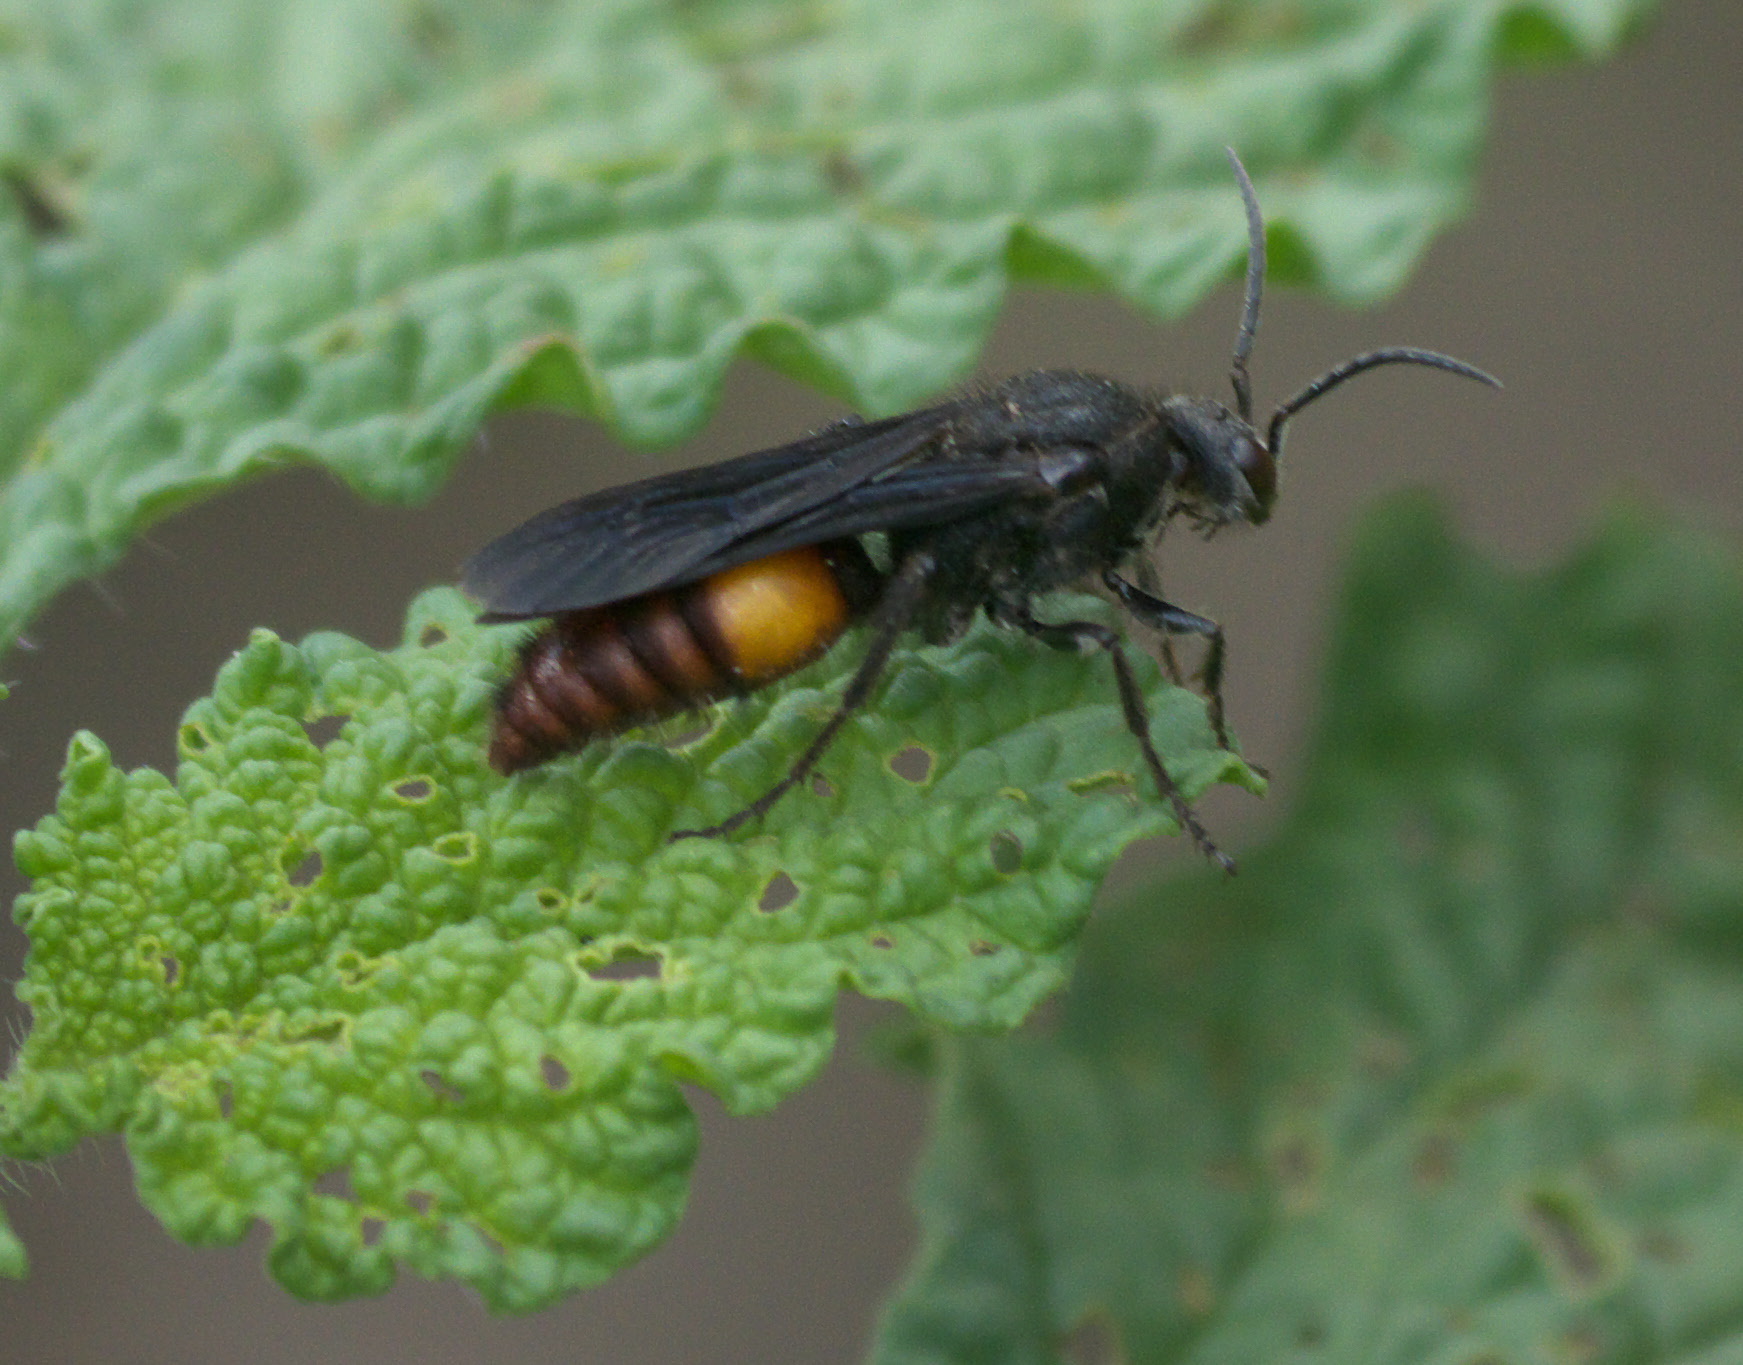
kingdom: Animalia
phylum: Arthropoda
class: Insecta
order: Hymenoptera
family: Mutillidae
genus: Timulla
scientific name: Timulla
